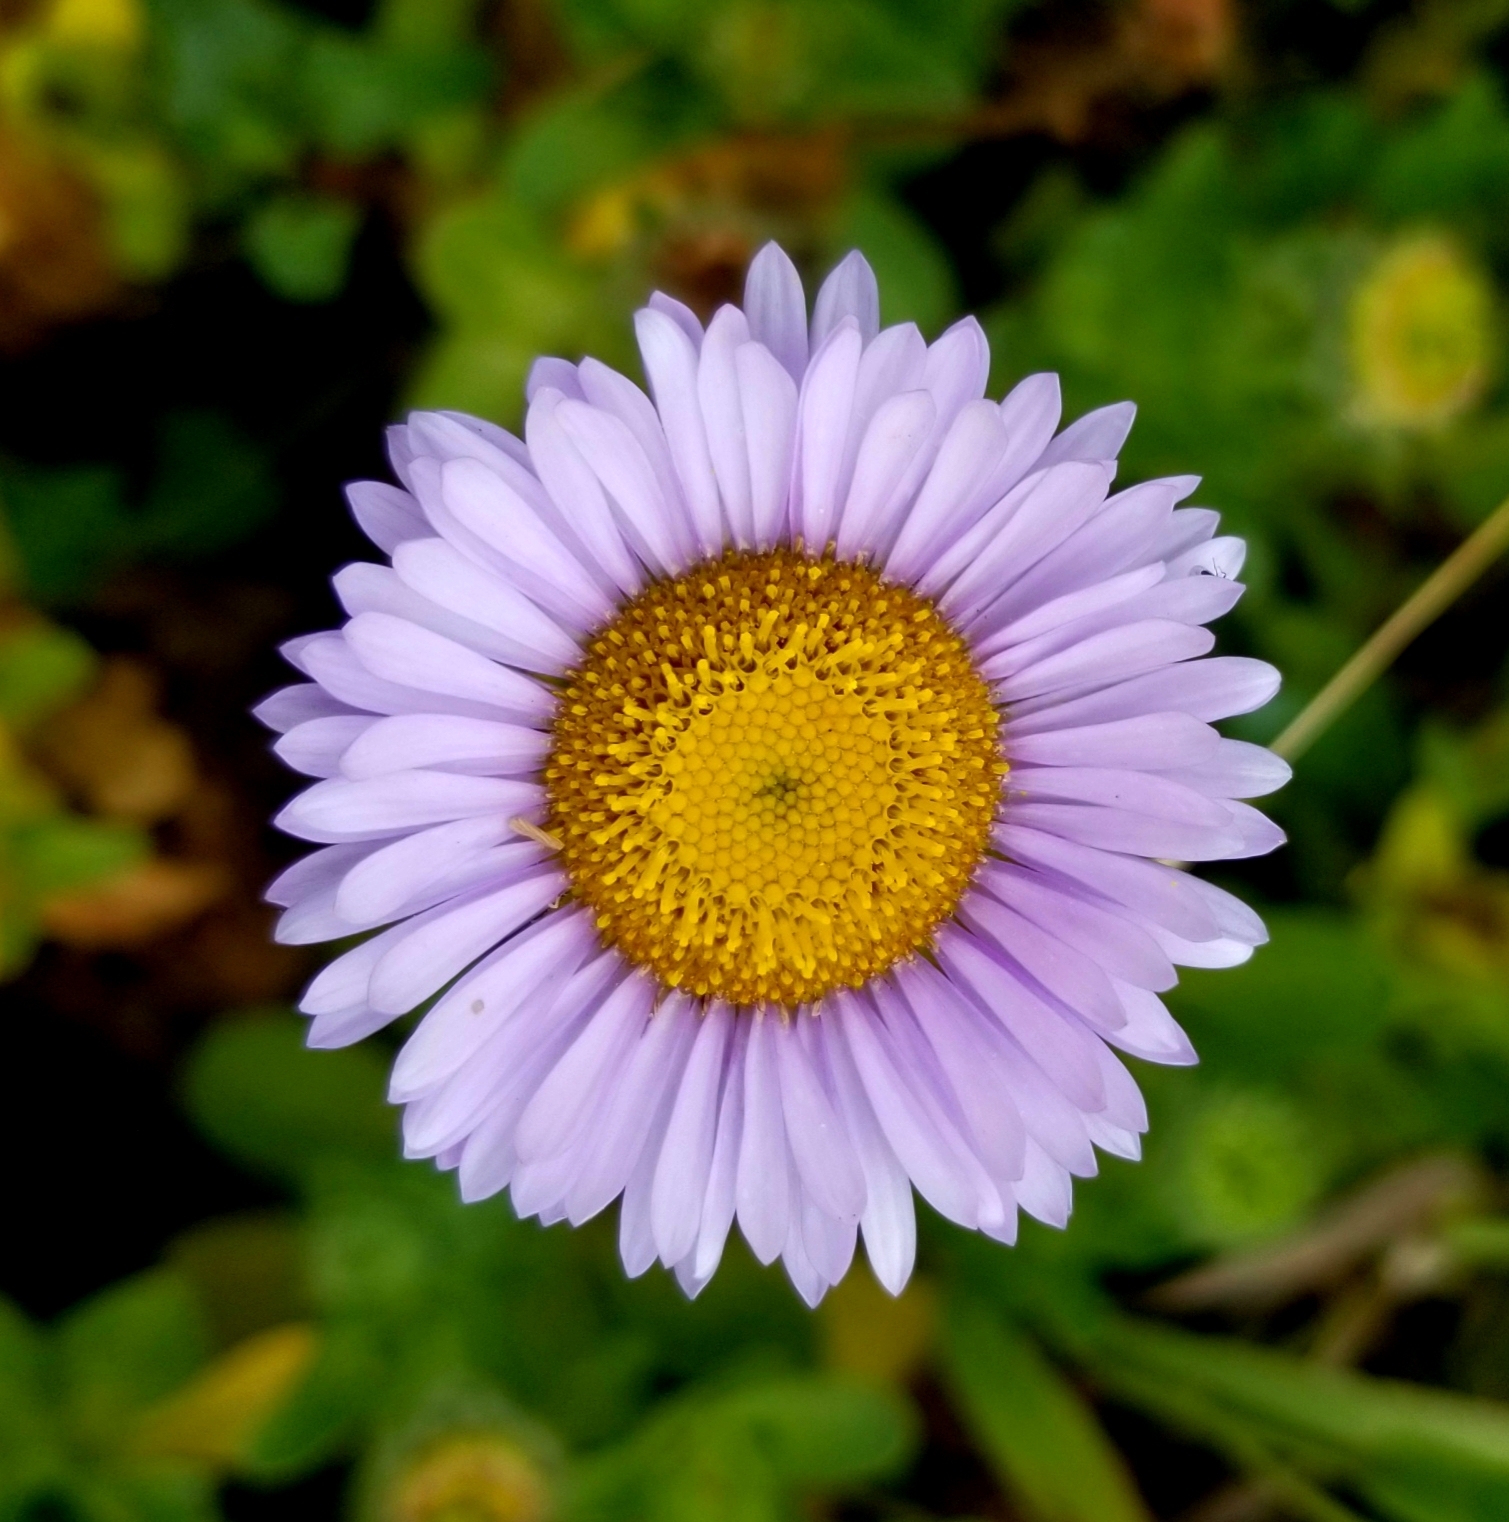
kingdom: Plantae
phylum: Tracheophyta
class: Magnoliopsida
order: Asterales
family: Asteraceae
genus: Erigeron
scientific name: Erigeron glaucus
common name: Seaside daisy
